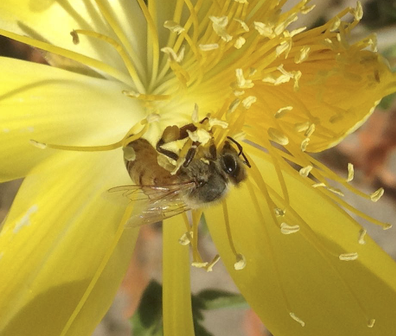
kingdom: Animalia
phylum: Arthropoda
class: Insecta
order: Hymenoptera
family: Apidae
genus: Apis
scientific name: Apis mellifera
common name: Honey bee
